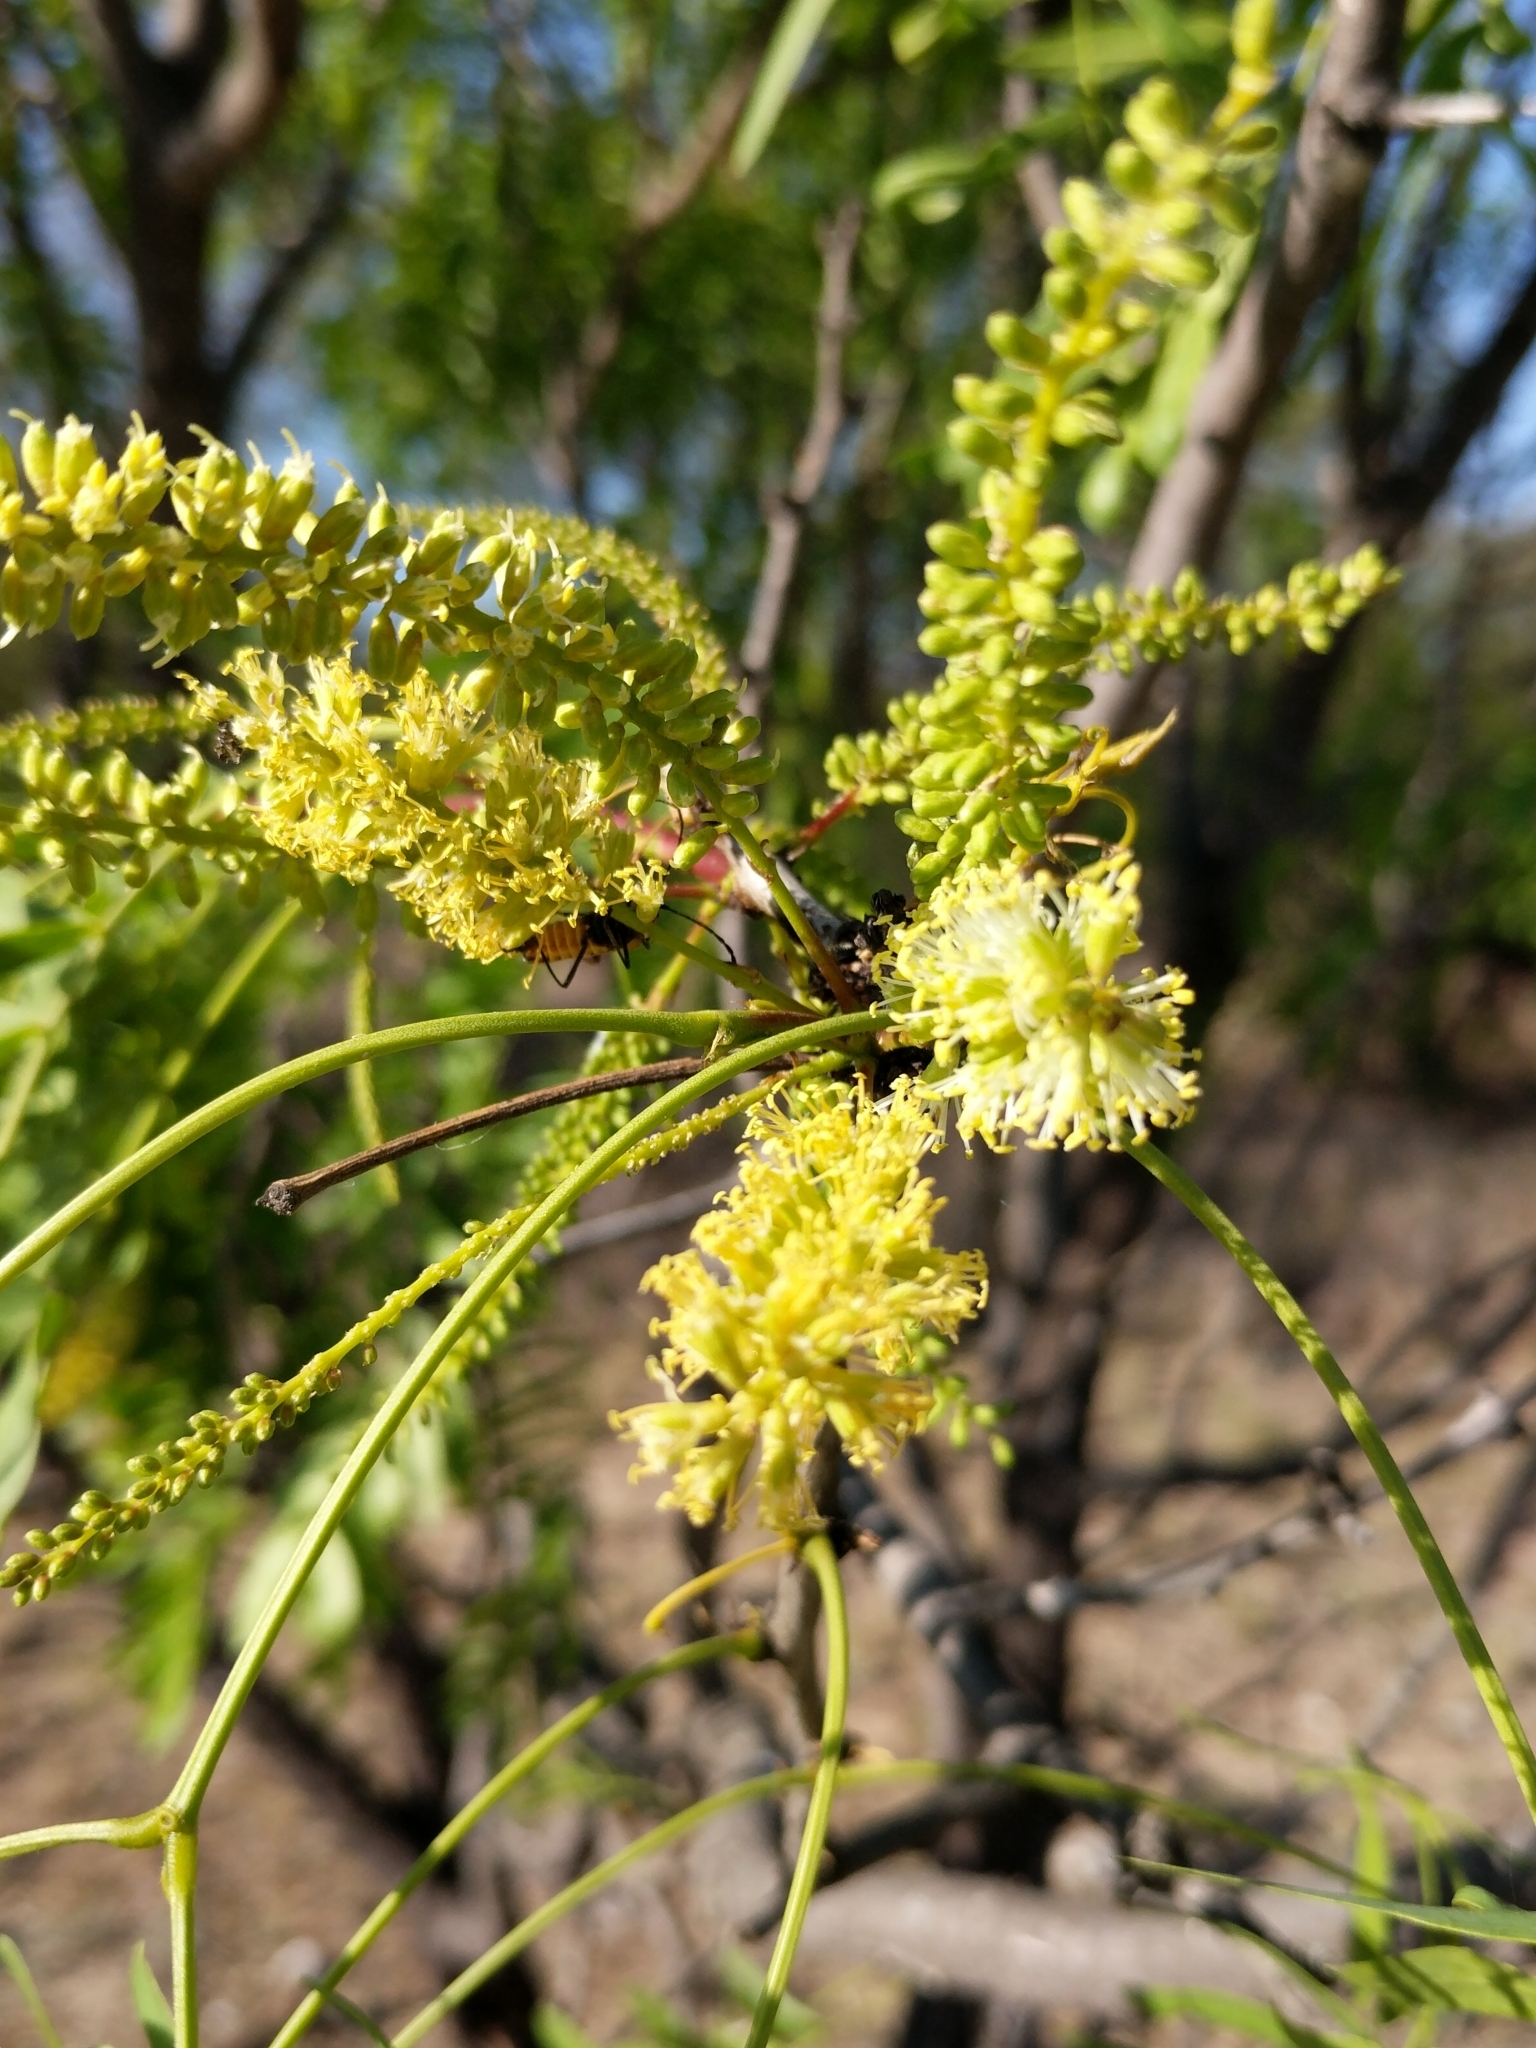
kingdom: Plantae
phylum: Tracheophyta
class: Magnoliopsida
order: Fabales
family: Fabaceae
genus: Prosopis
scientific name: Prosopis glandulosa
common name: Honey mesquite
